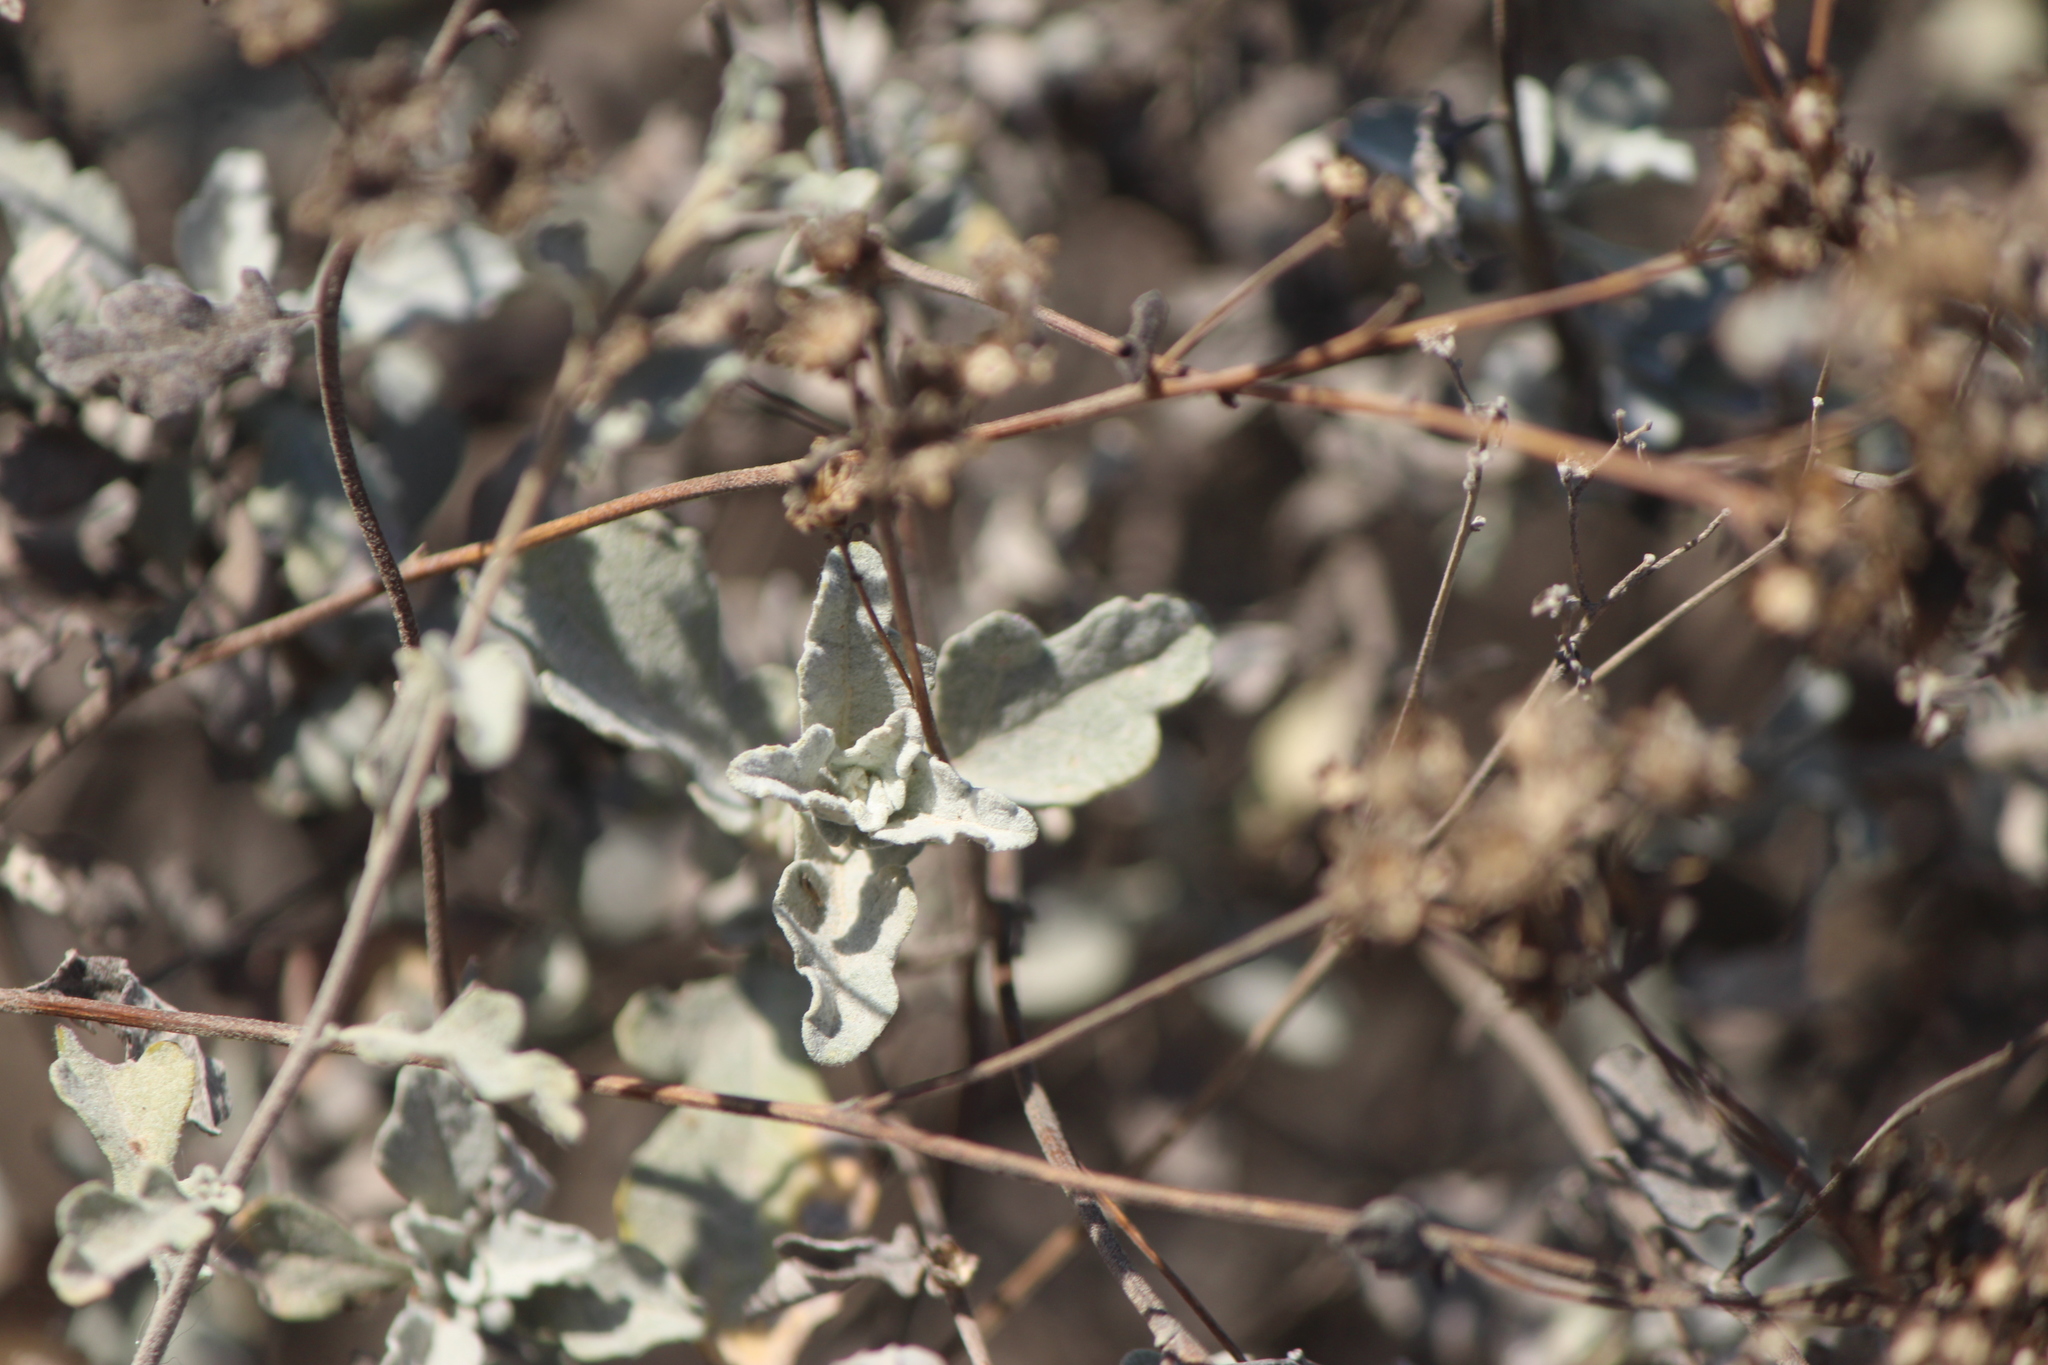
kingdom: Plantae
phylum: Tracheophyta
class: Magnoliopsida
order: Asterales
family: Asteraceae
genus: Parthenium
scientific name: Parthenium incanum
